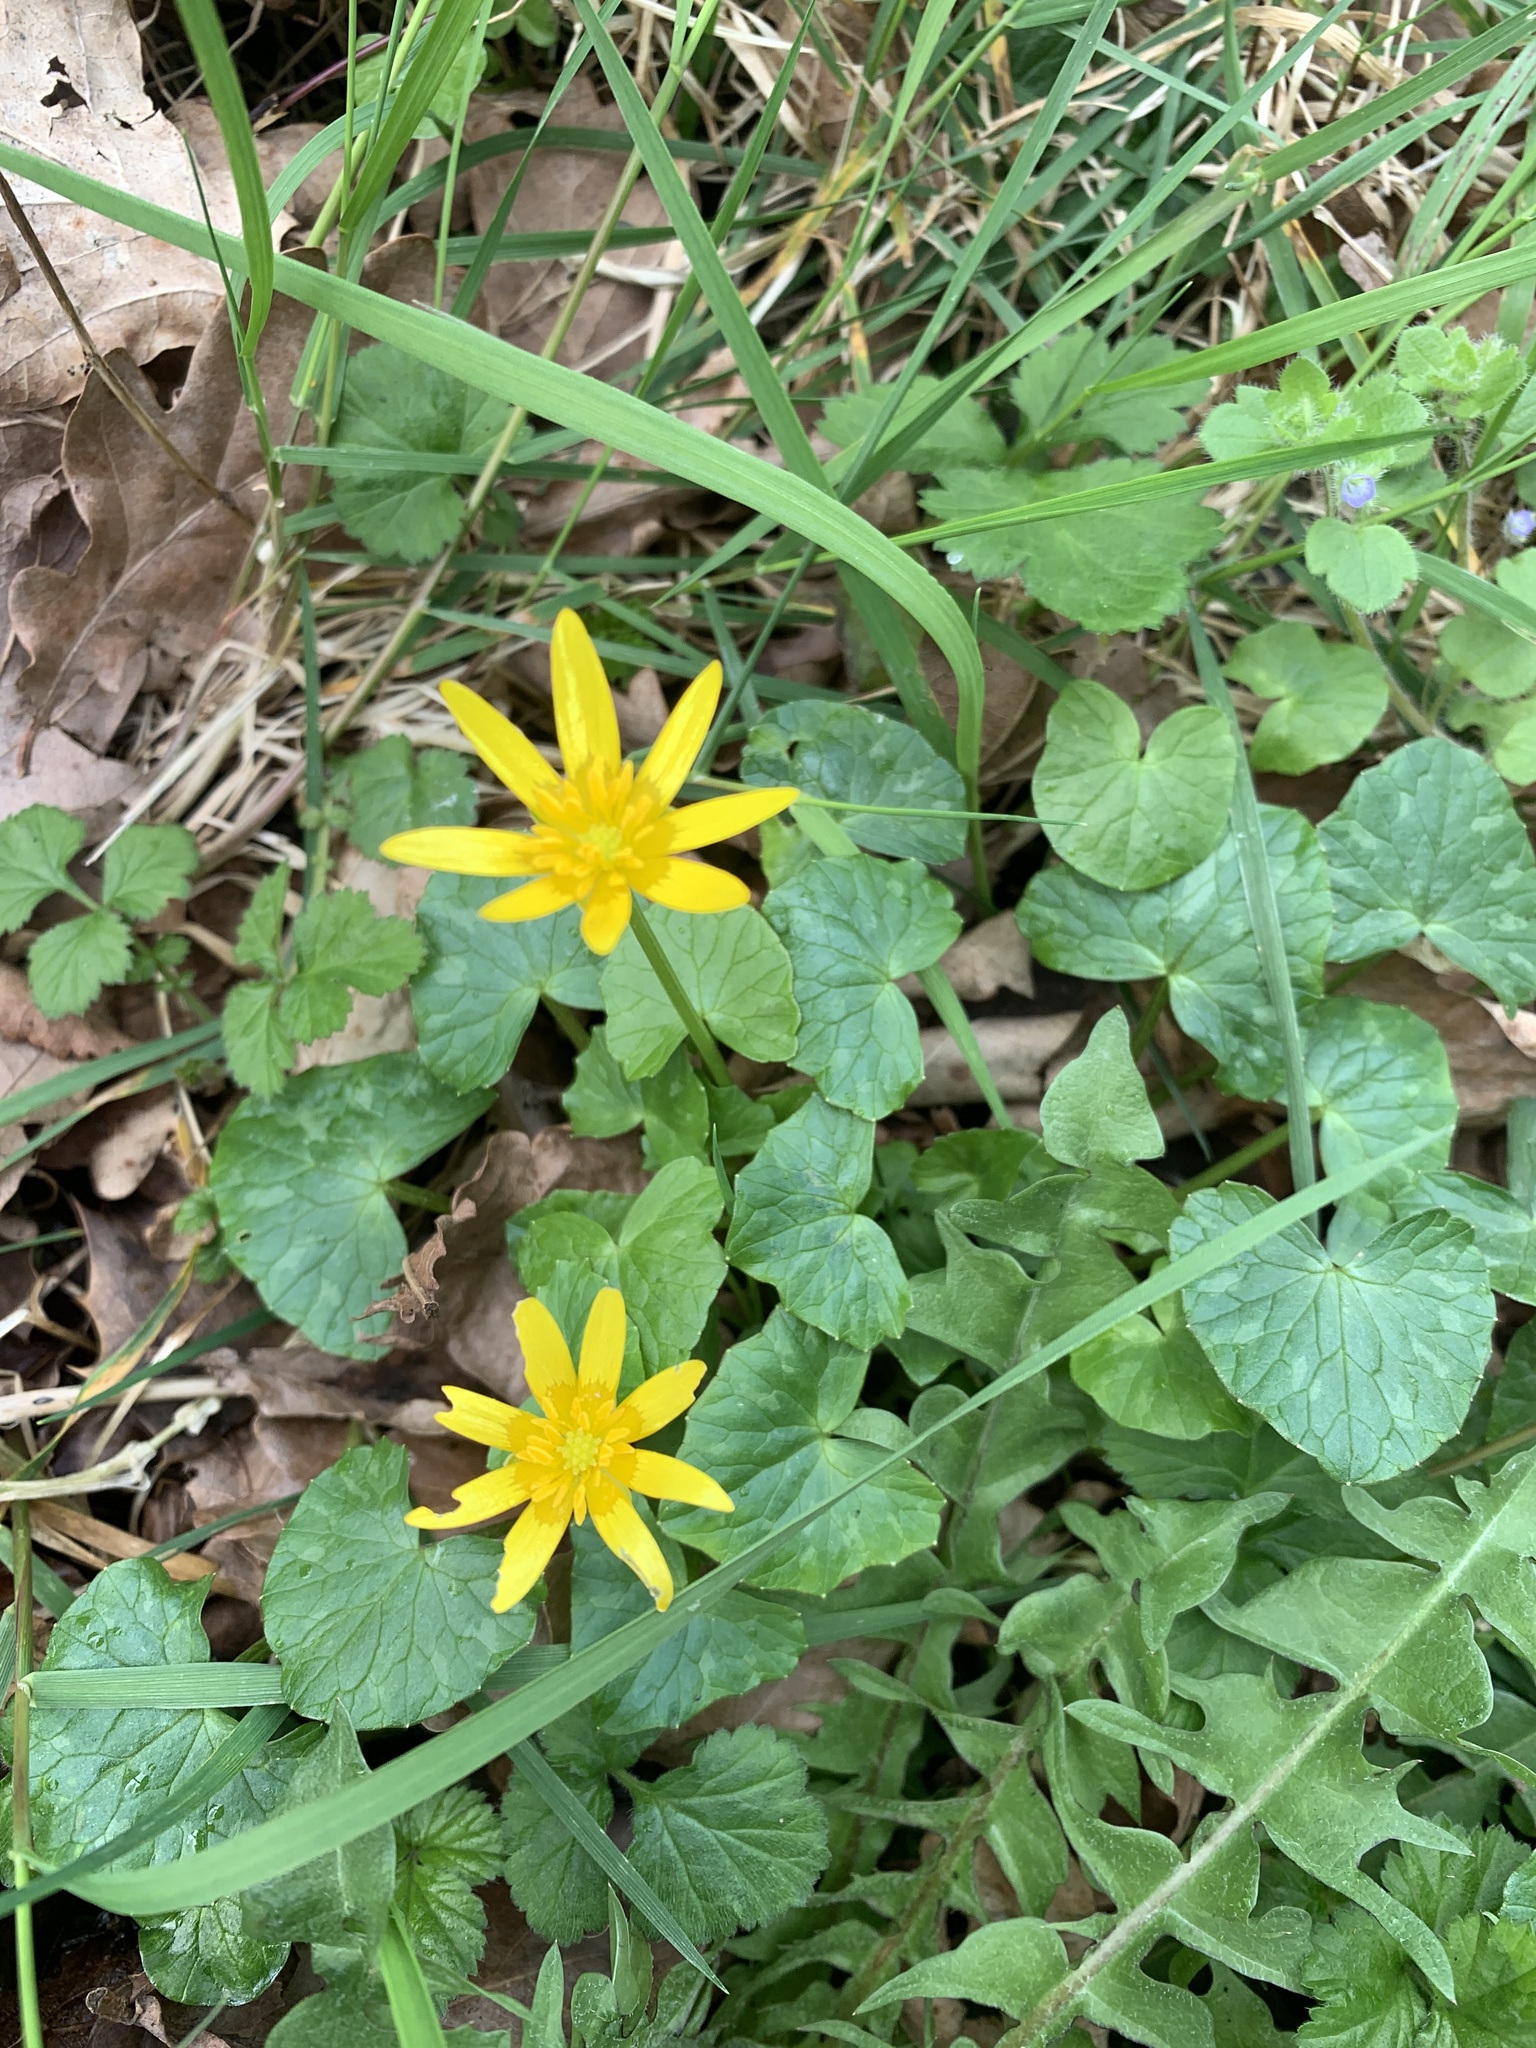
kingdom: Plantae
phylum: Tracheophyta
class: Magnoliopsida
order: Ranunculales
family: Ranunculaceae
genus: Ficaria
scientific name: Ficaria verna
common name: Lesser celandine
